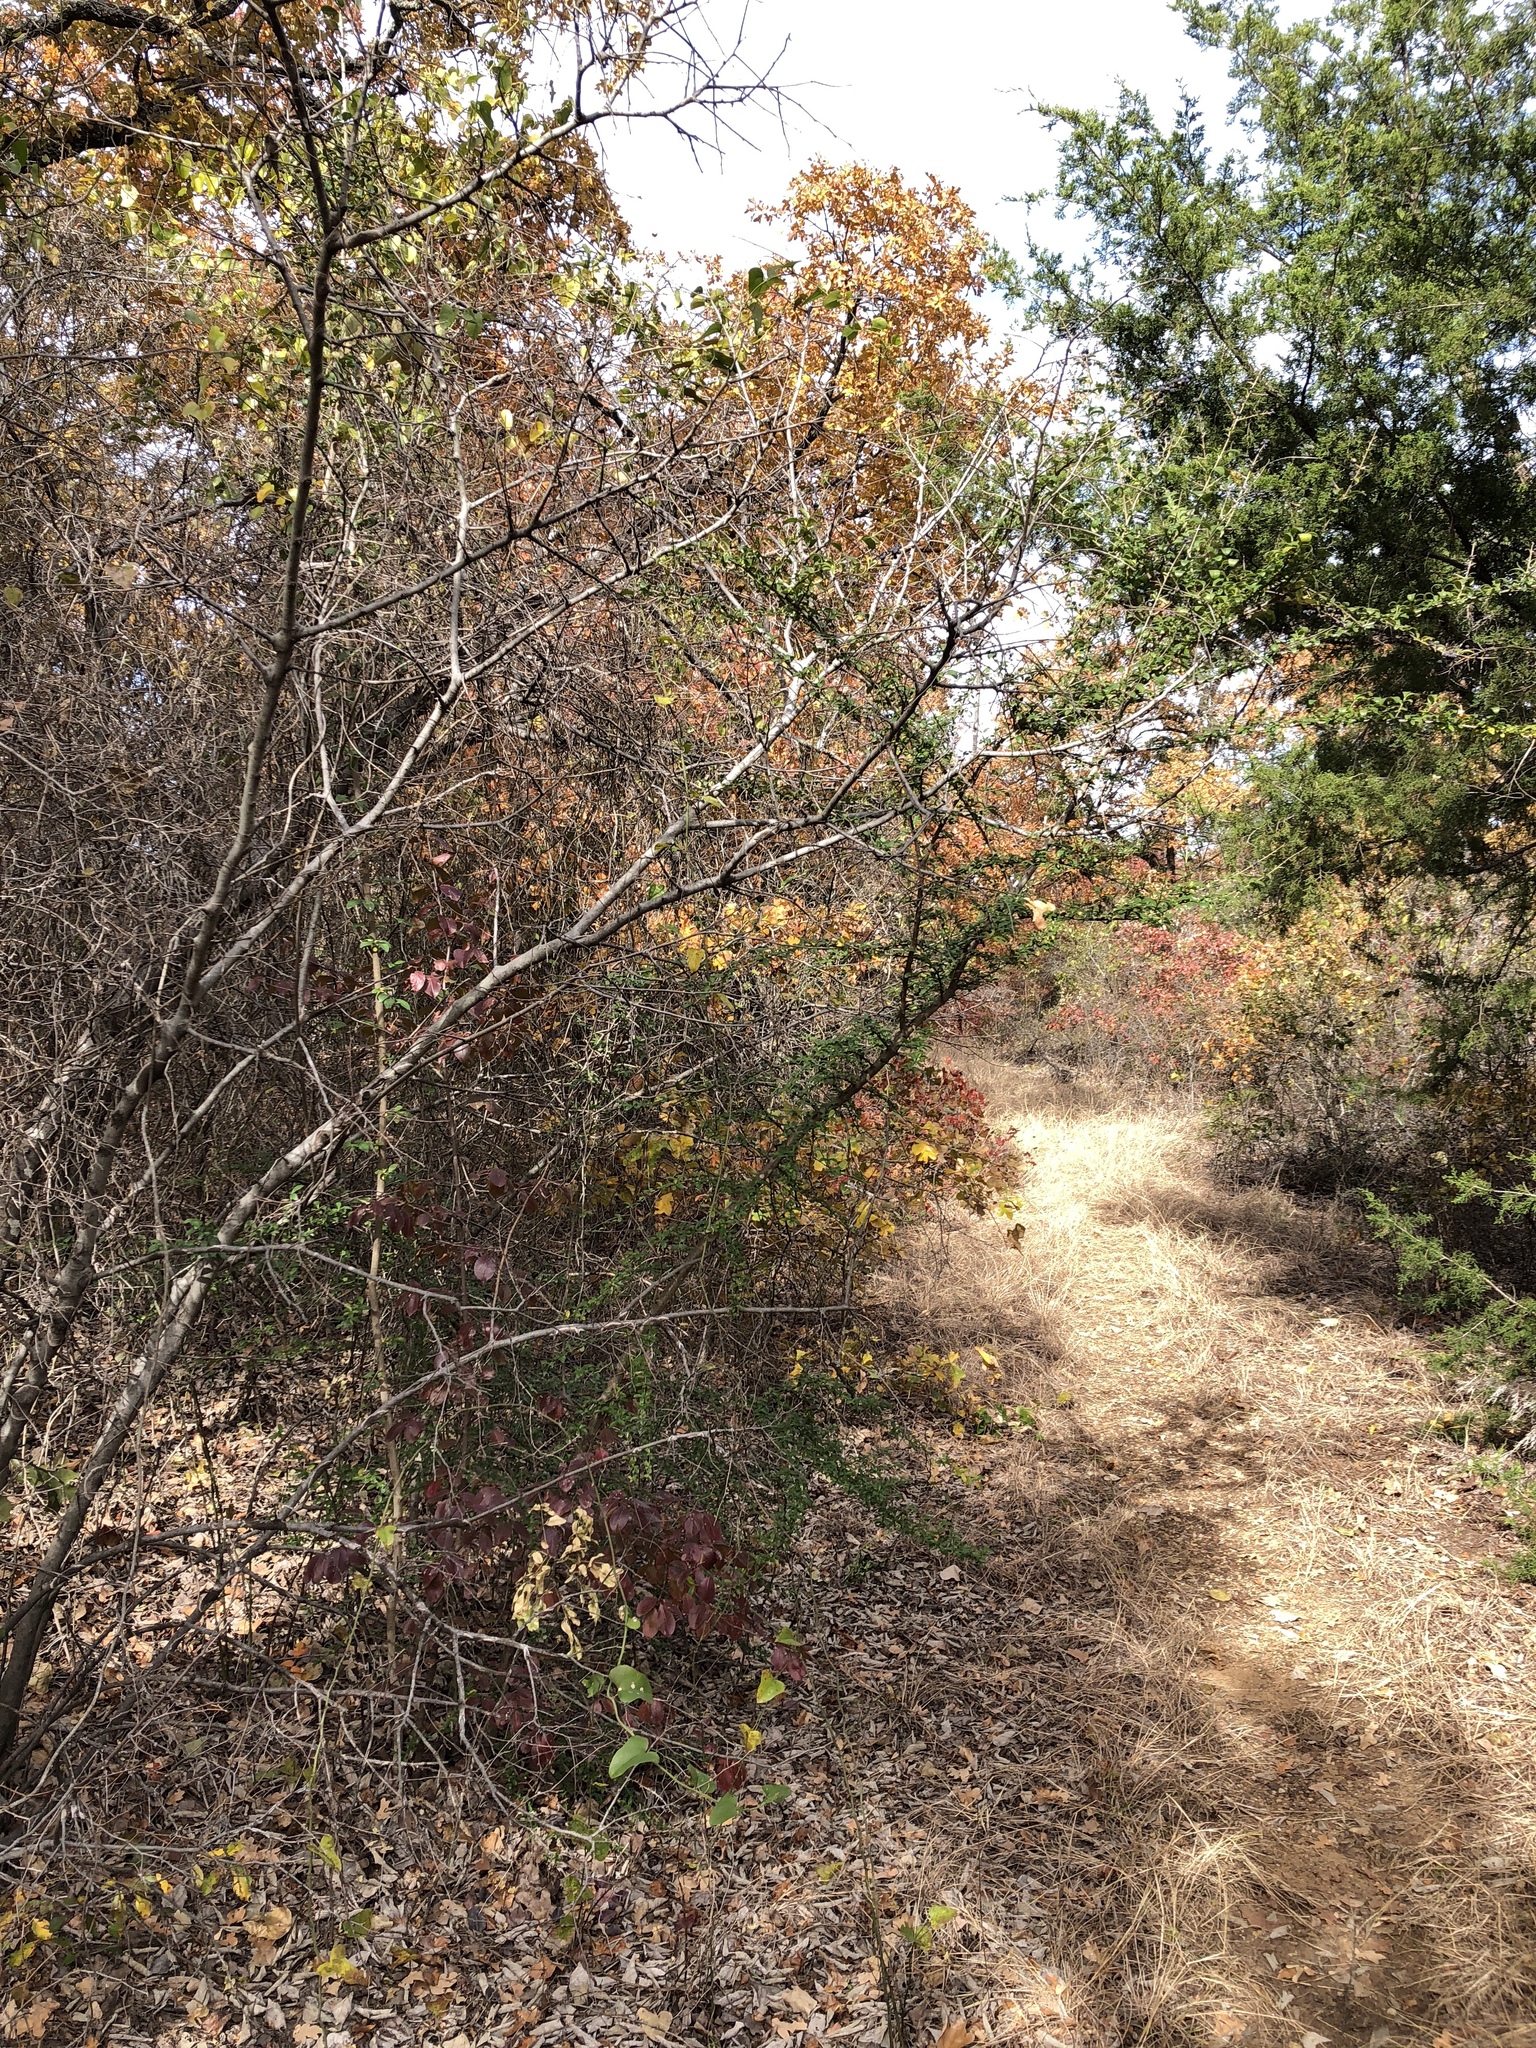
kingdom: Plantae
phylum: Tracheophyta
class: Magnoliopsida
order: Lamiales
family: Oleaceae
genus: Ligustrum
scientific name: Ligustrum quihoui
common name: Waxyleaf privet
